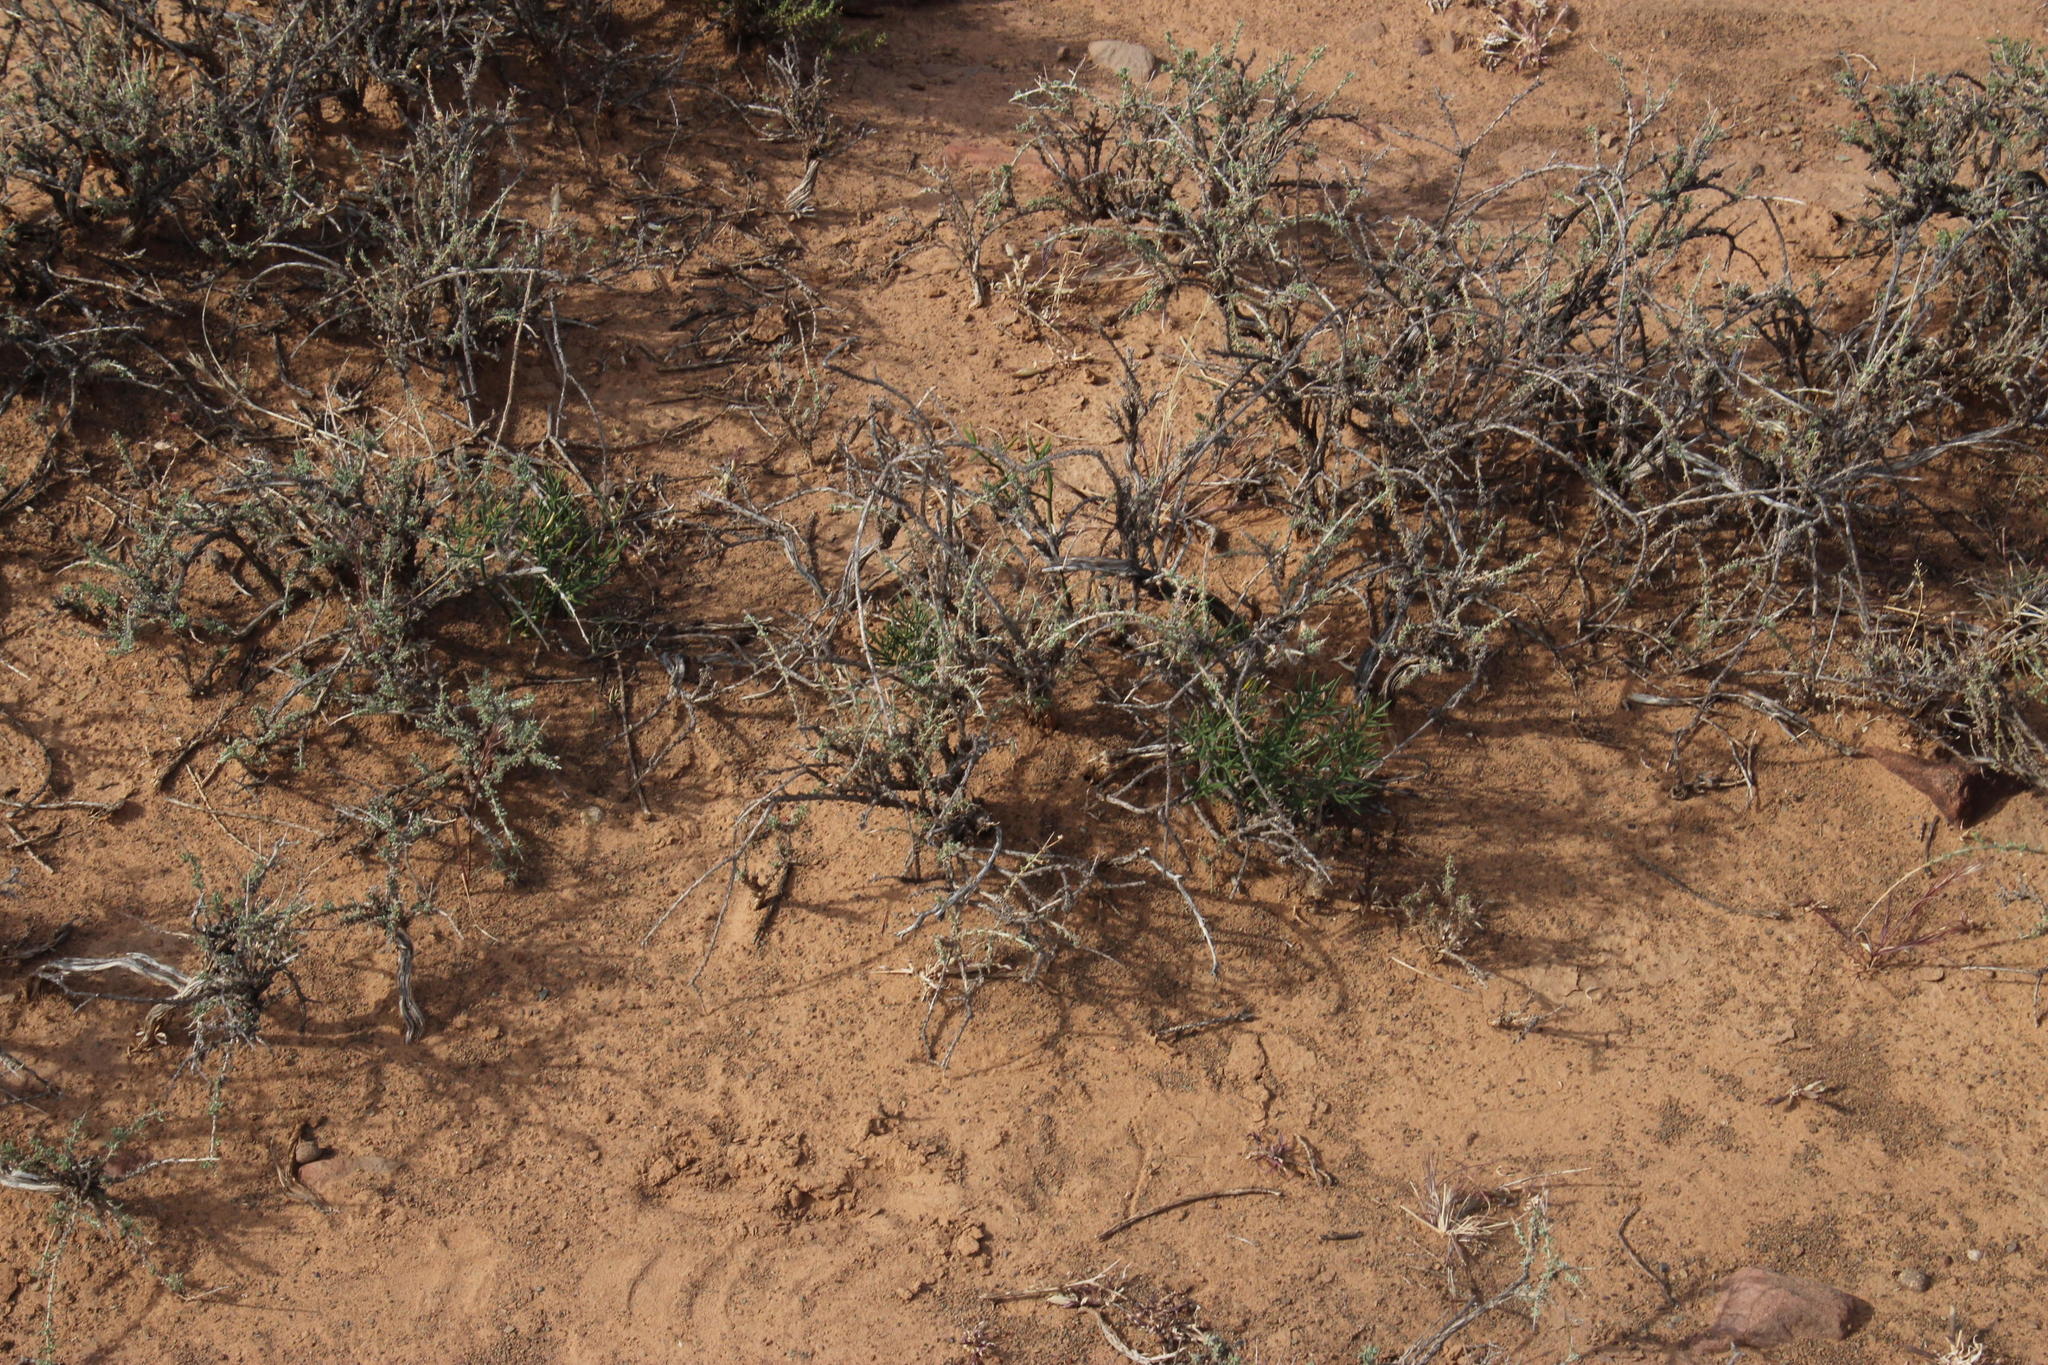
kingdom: Plantae
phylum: Tracheophyta
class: Liliopsida
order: Asparagales
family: Asparagaceae
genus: Asparagus
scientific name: Asparagus striatus
